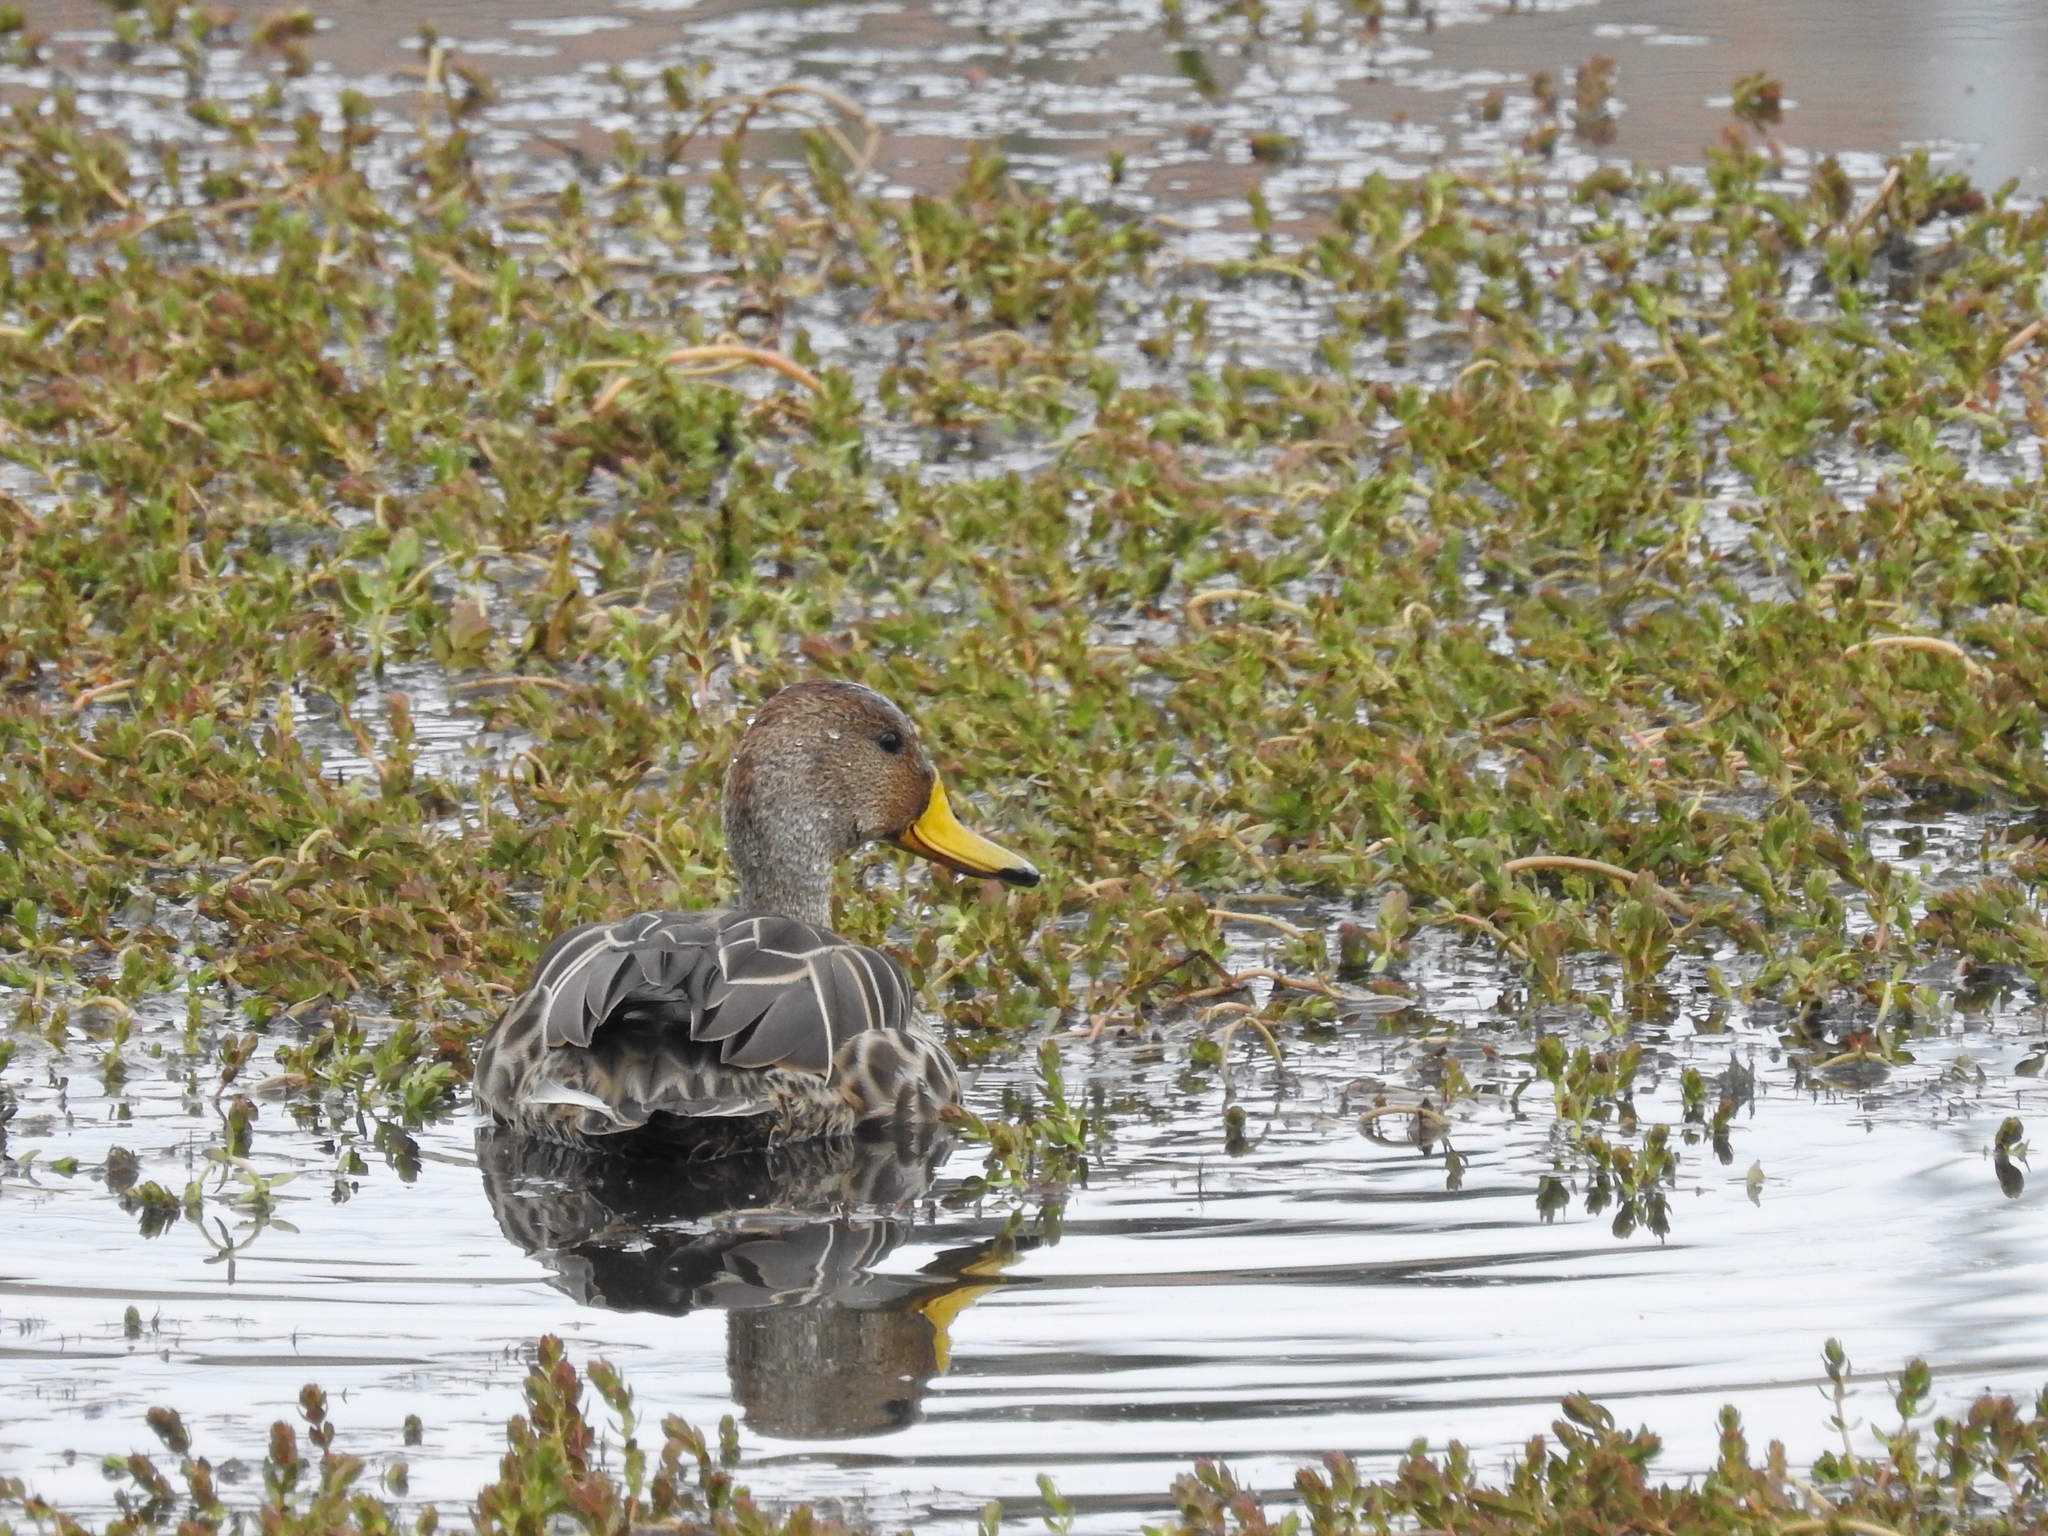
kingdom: Animalia
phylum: Chordata
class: Aves
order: Anseriformes
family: Anatidae
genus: Anas
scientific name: Anas georgica
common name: Yellow-billed pintail
